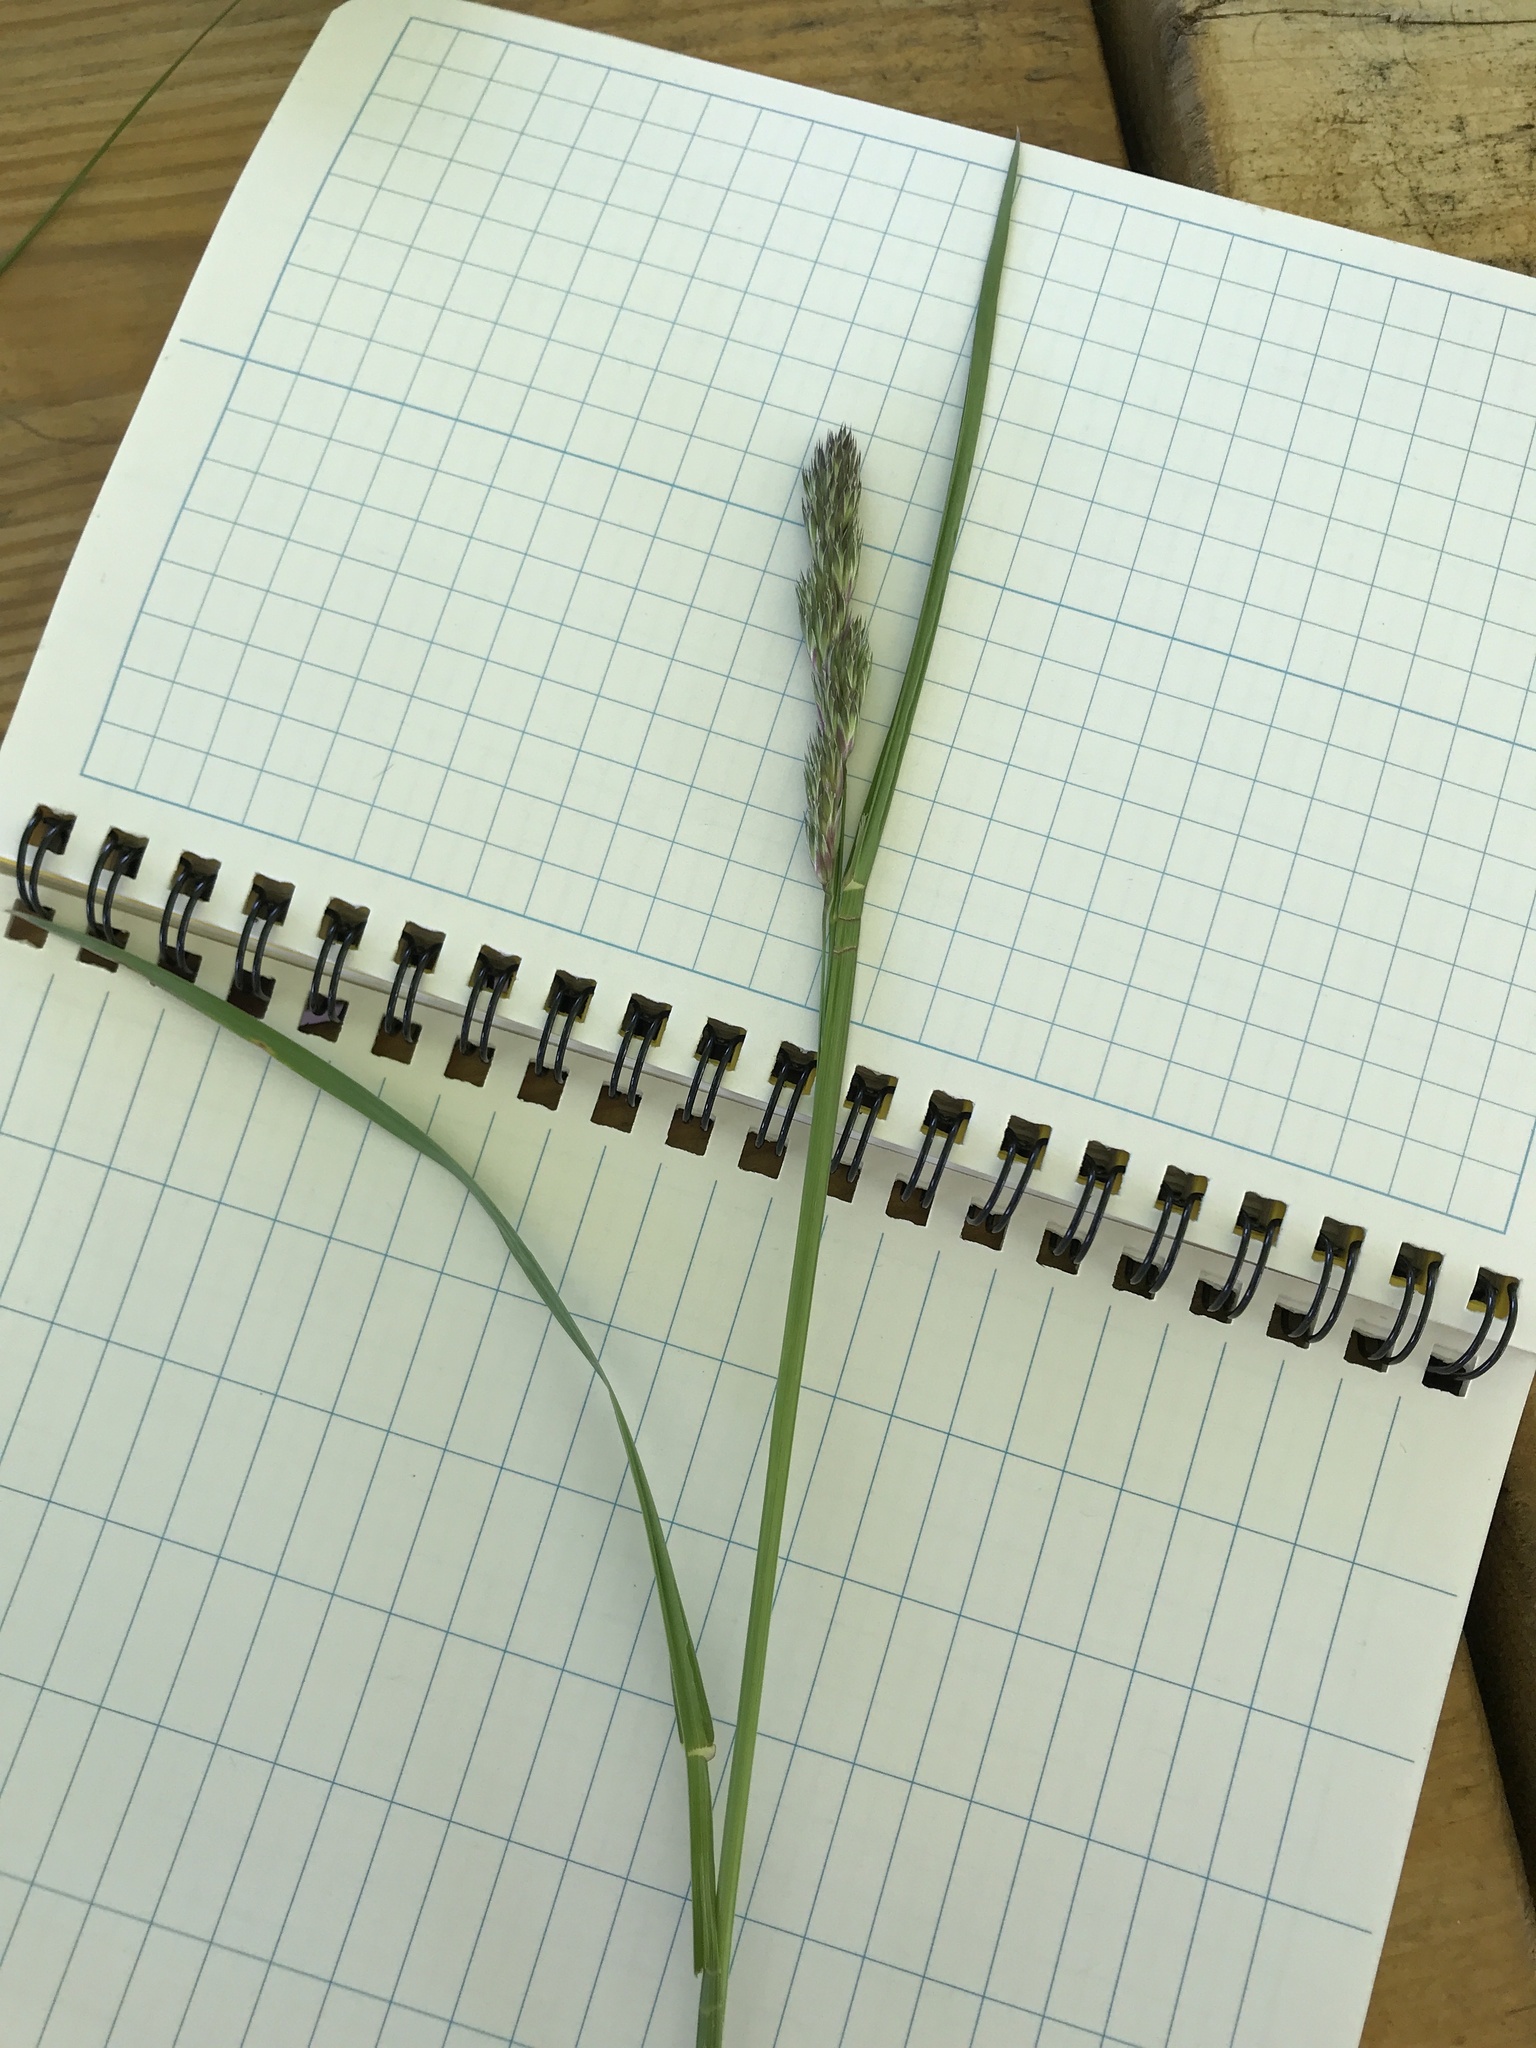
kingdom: Plantae
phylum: Tracheophyta
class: Liliopsida
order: Poales
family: Poaceae
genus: Dactylis
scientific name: Dactylis glomerata
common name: Orchardgrass
